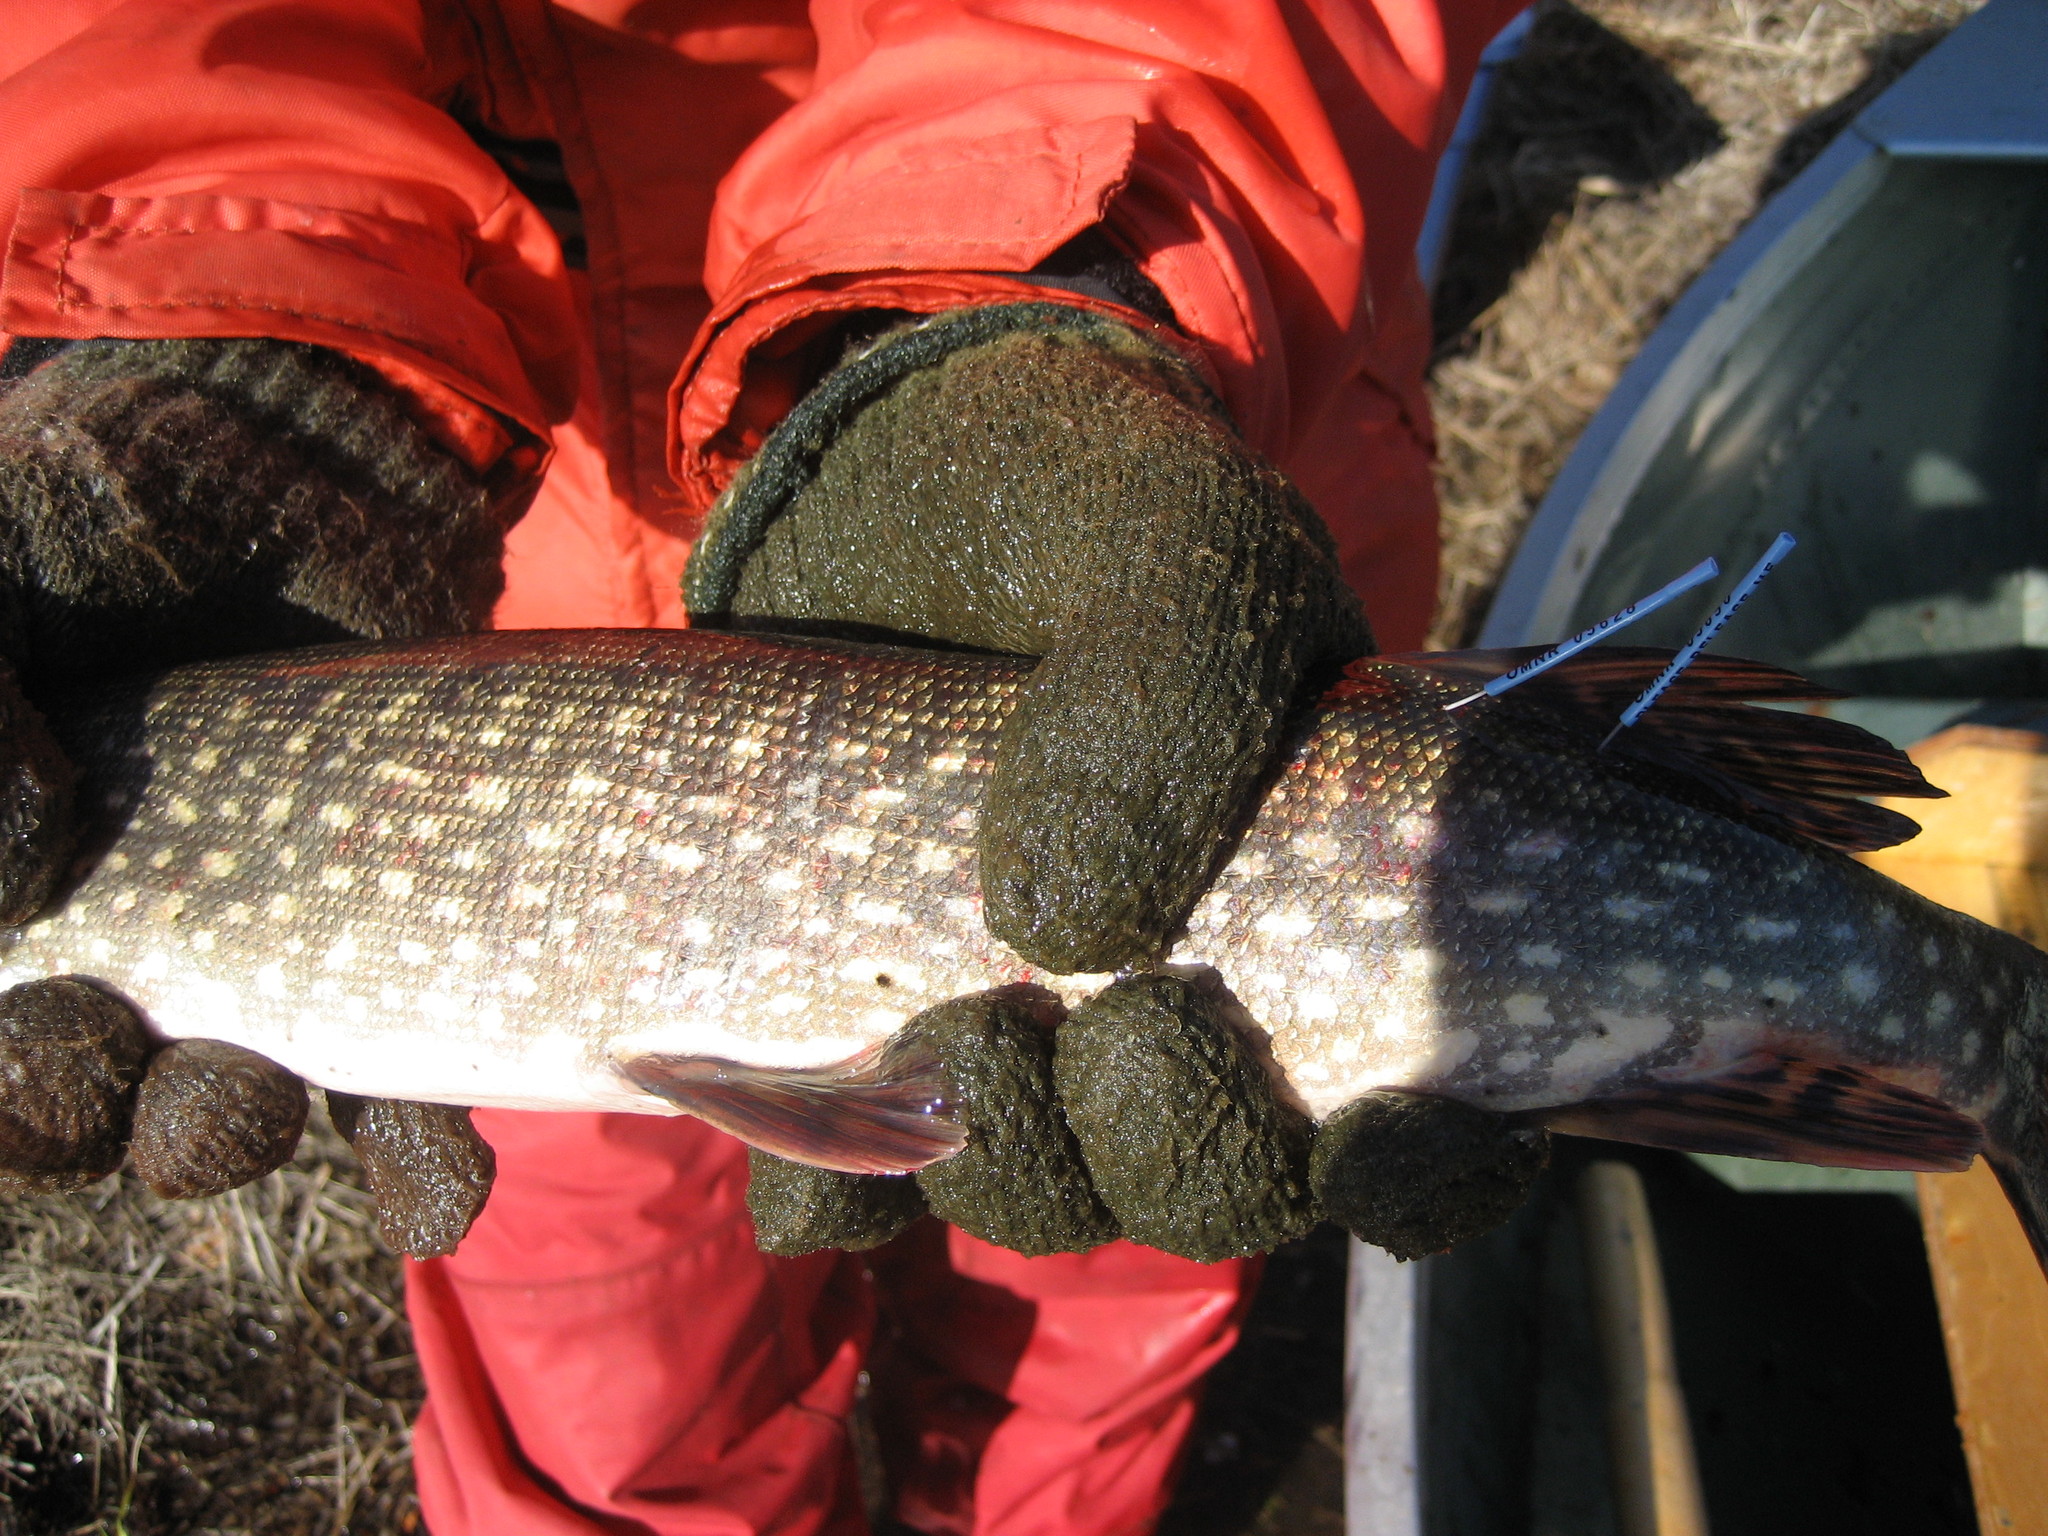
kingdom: Animalia
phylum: Chordata
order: Esociformes
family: Esocidae
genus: Esox
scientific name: Esox lucius
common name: Northern pike
